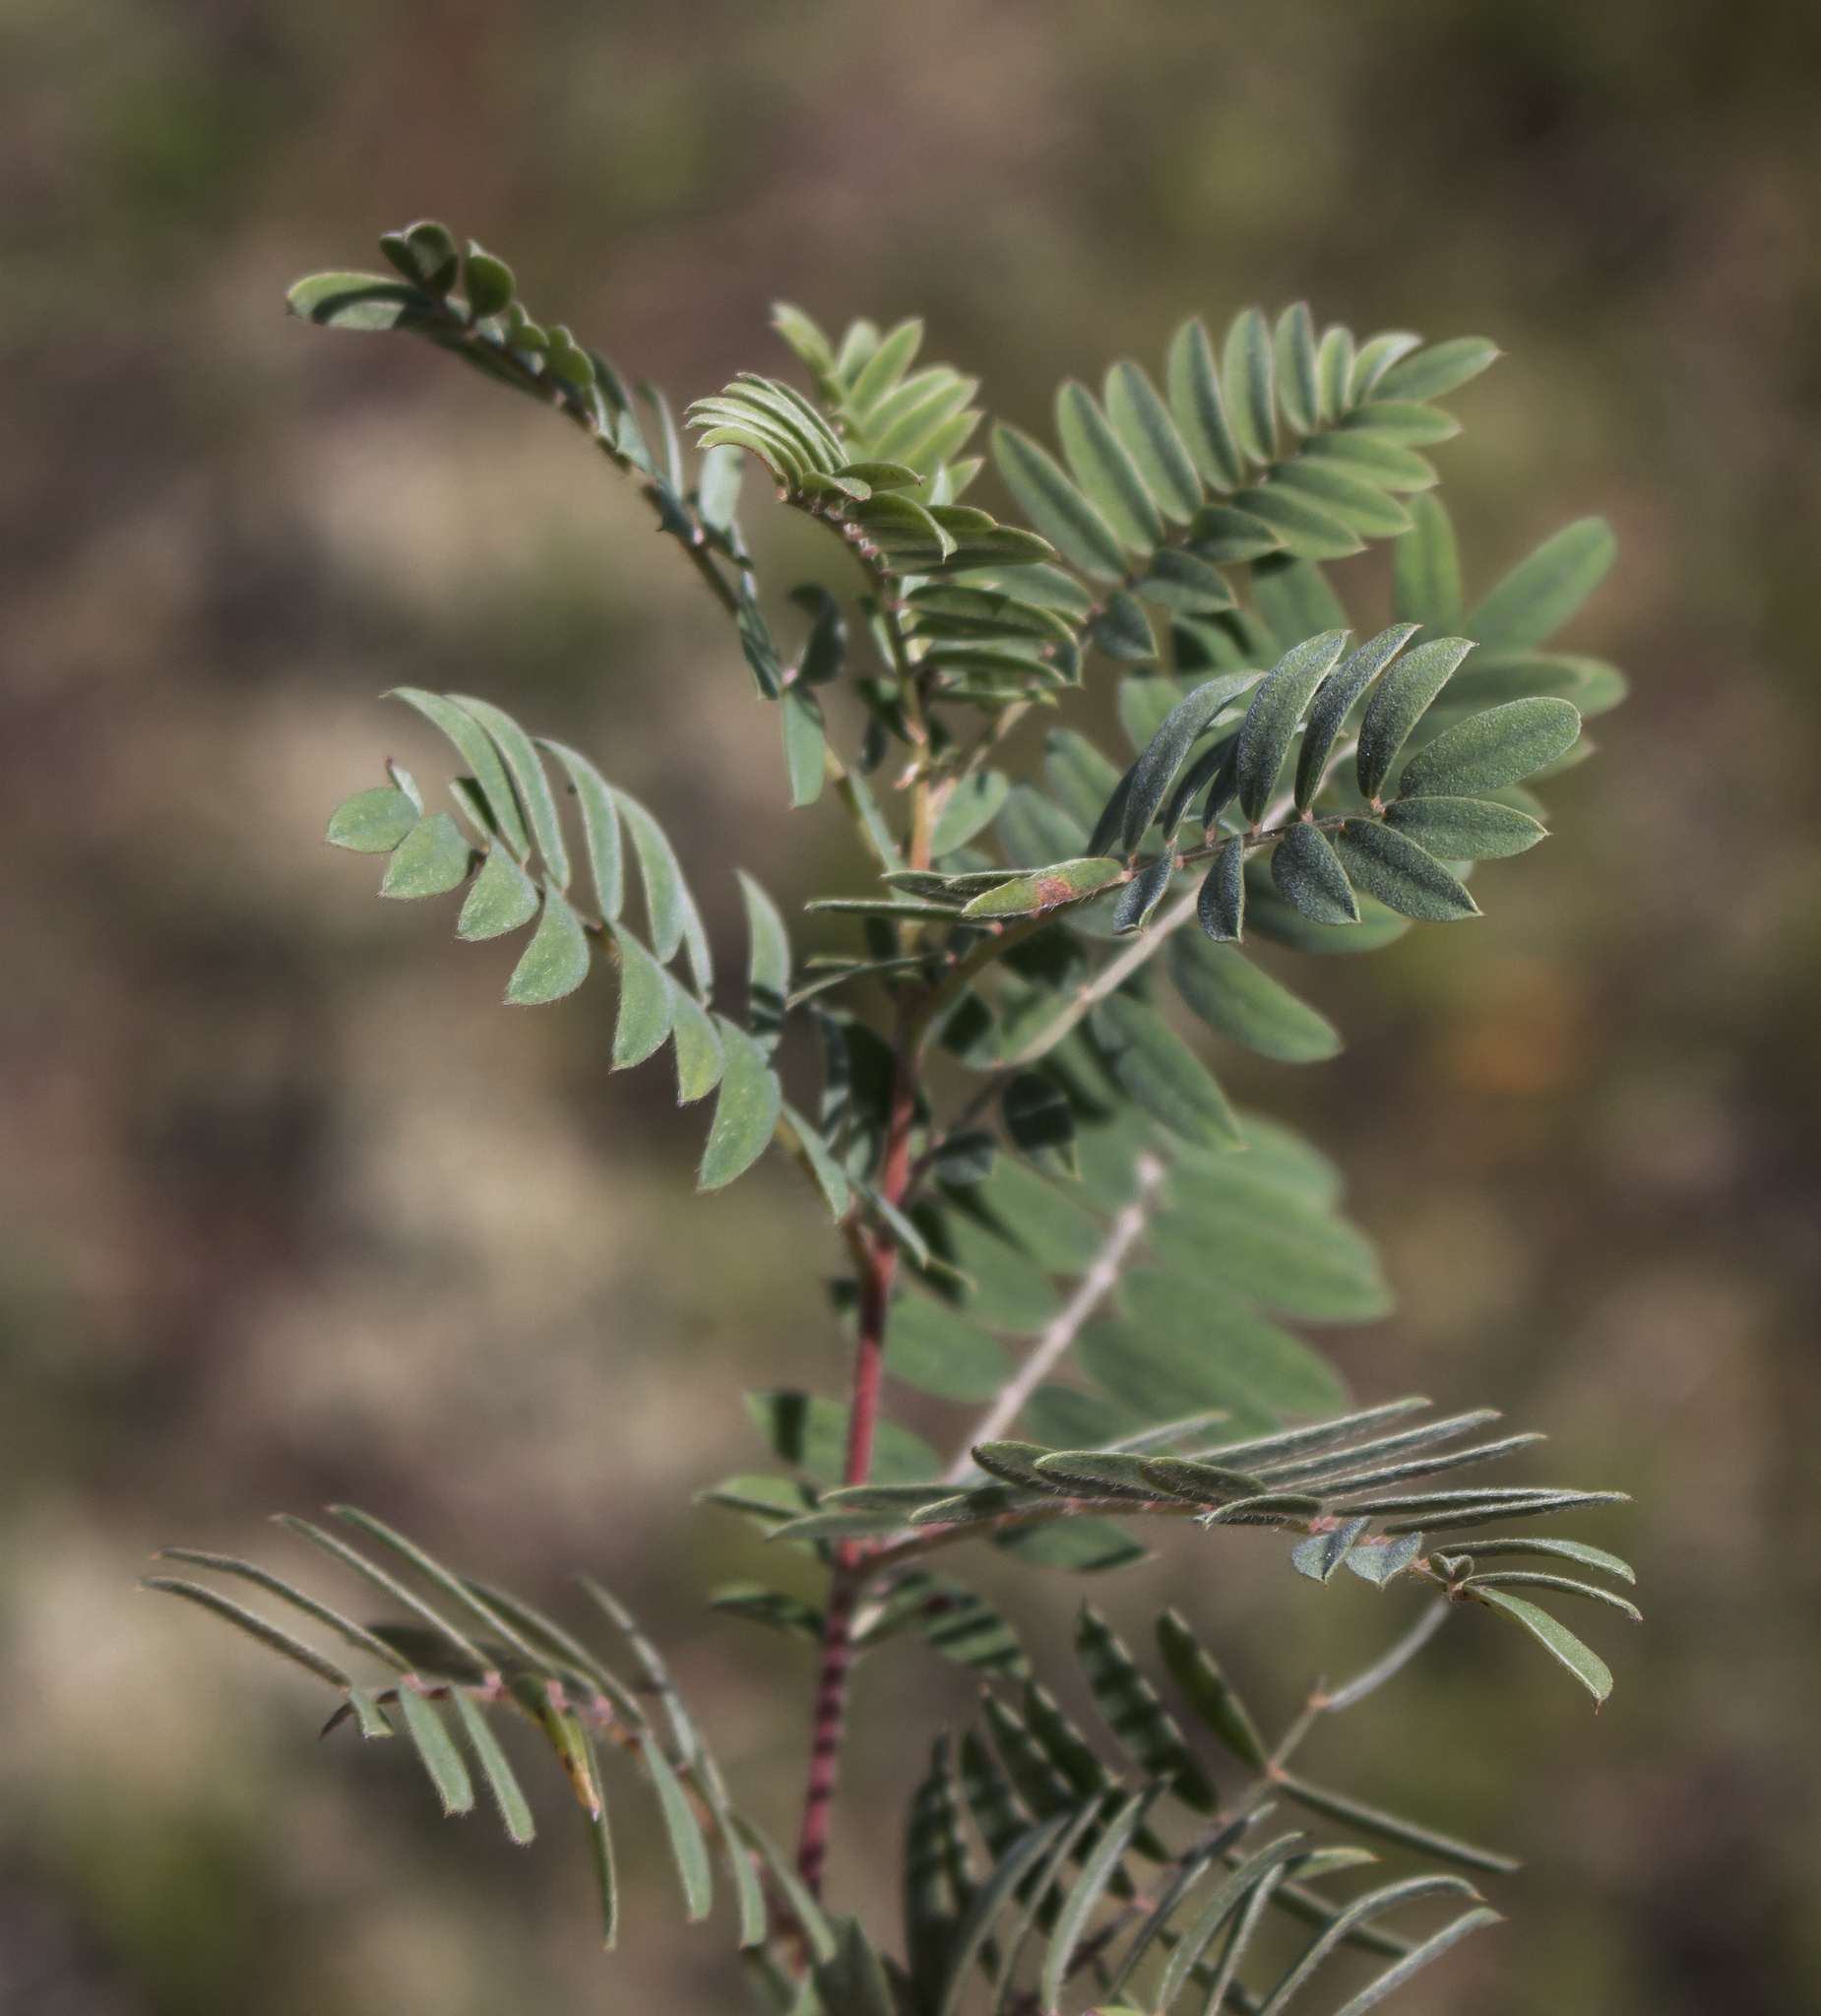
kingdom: Plantae
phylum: Tracheophyta
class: Magnoliopsida
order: Fabales
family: Fabaceae
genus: Tephrosia
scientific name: Tephrosia virginiana
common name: Rabbit-pea
